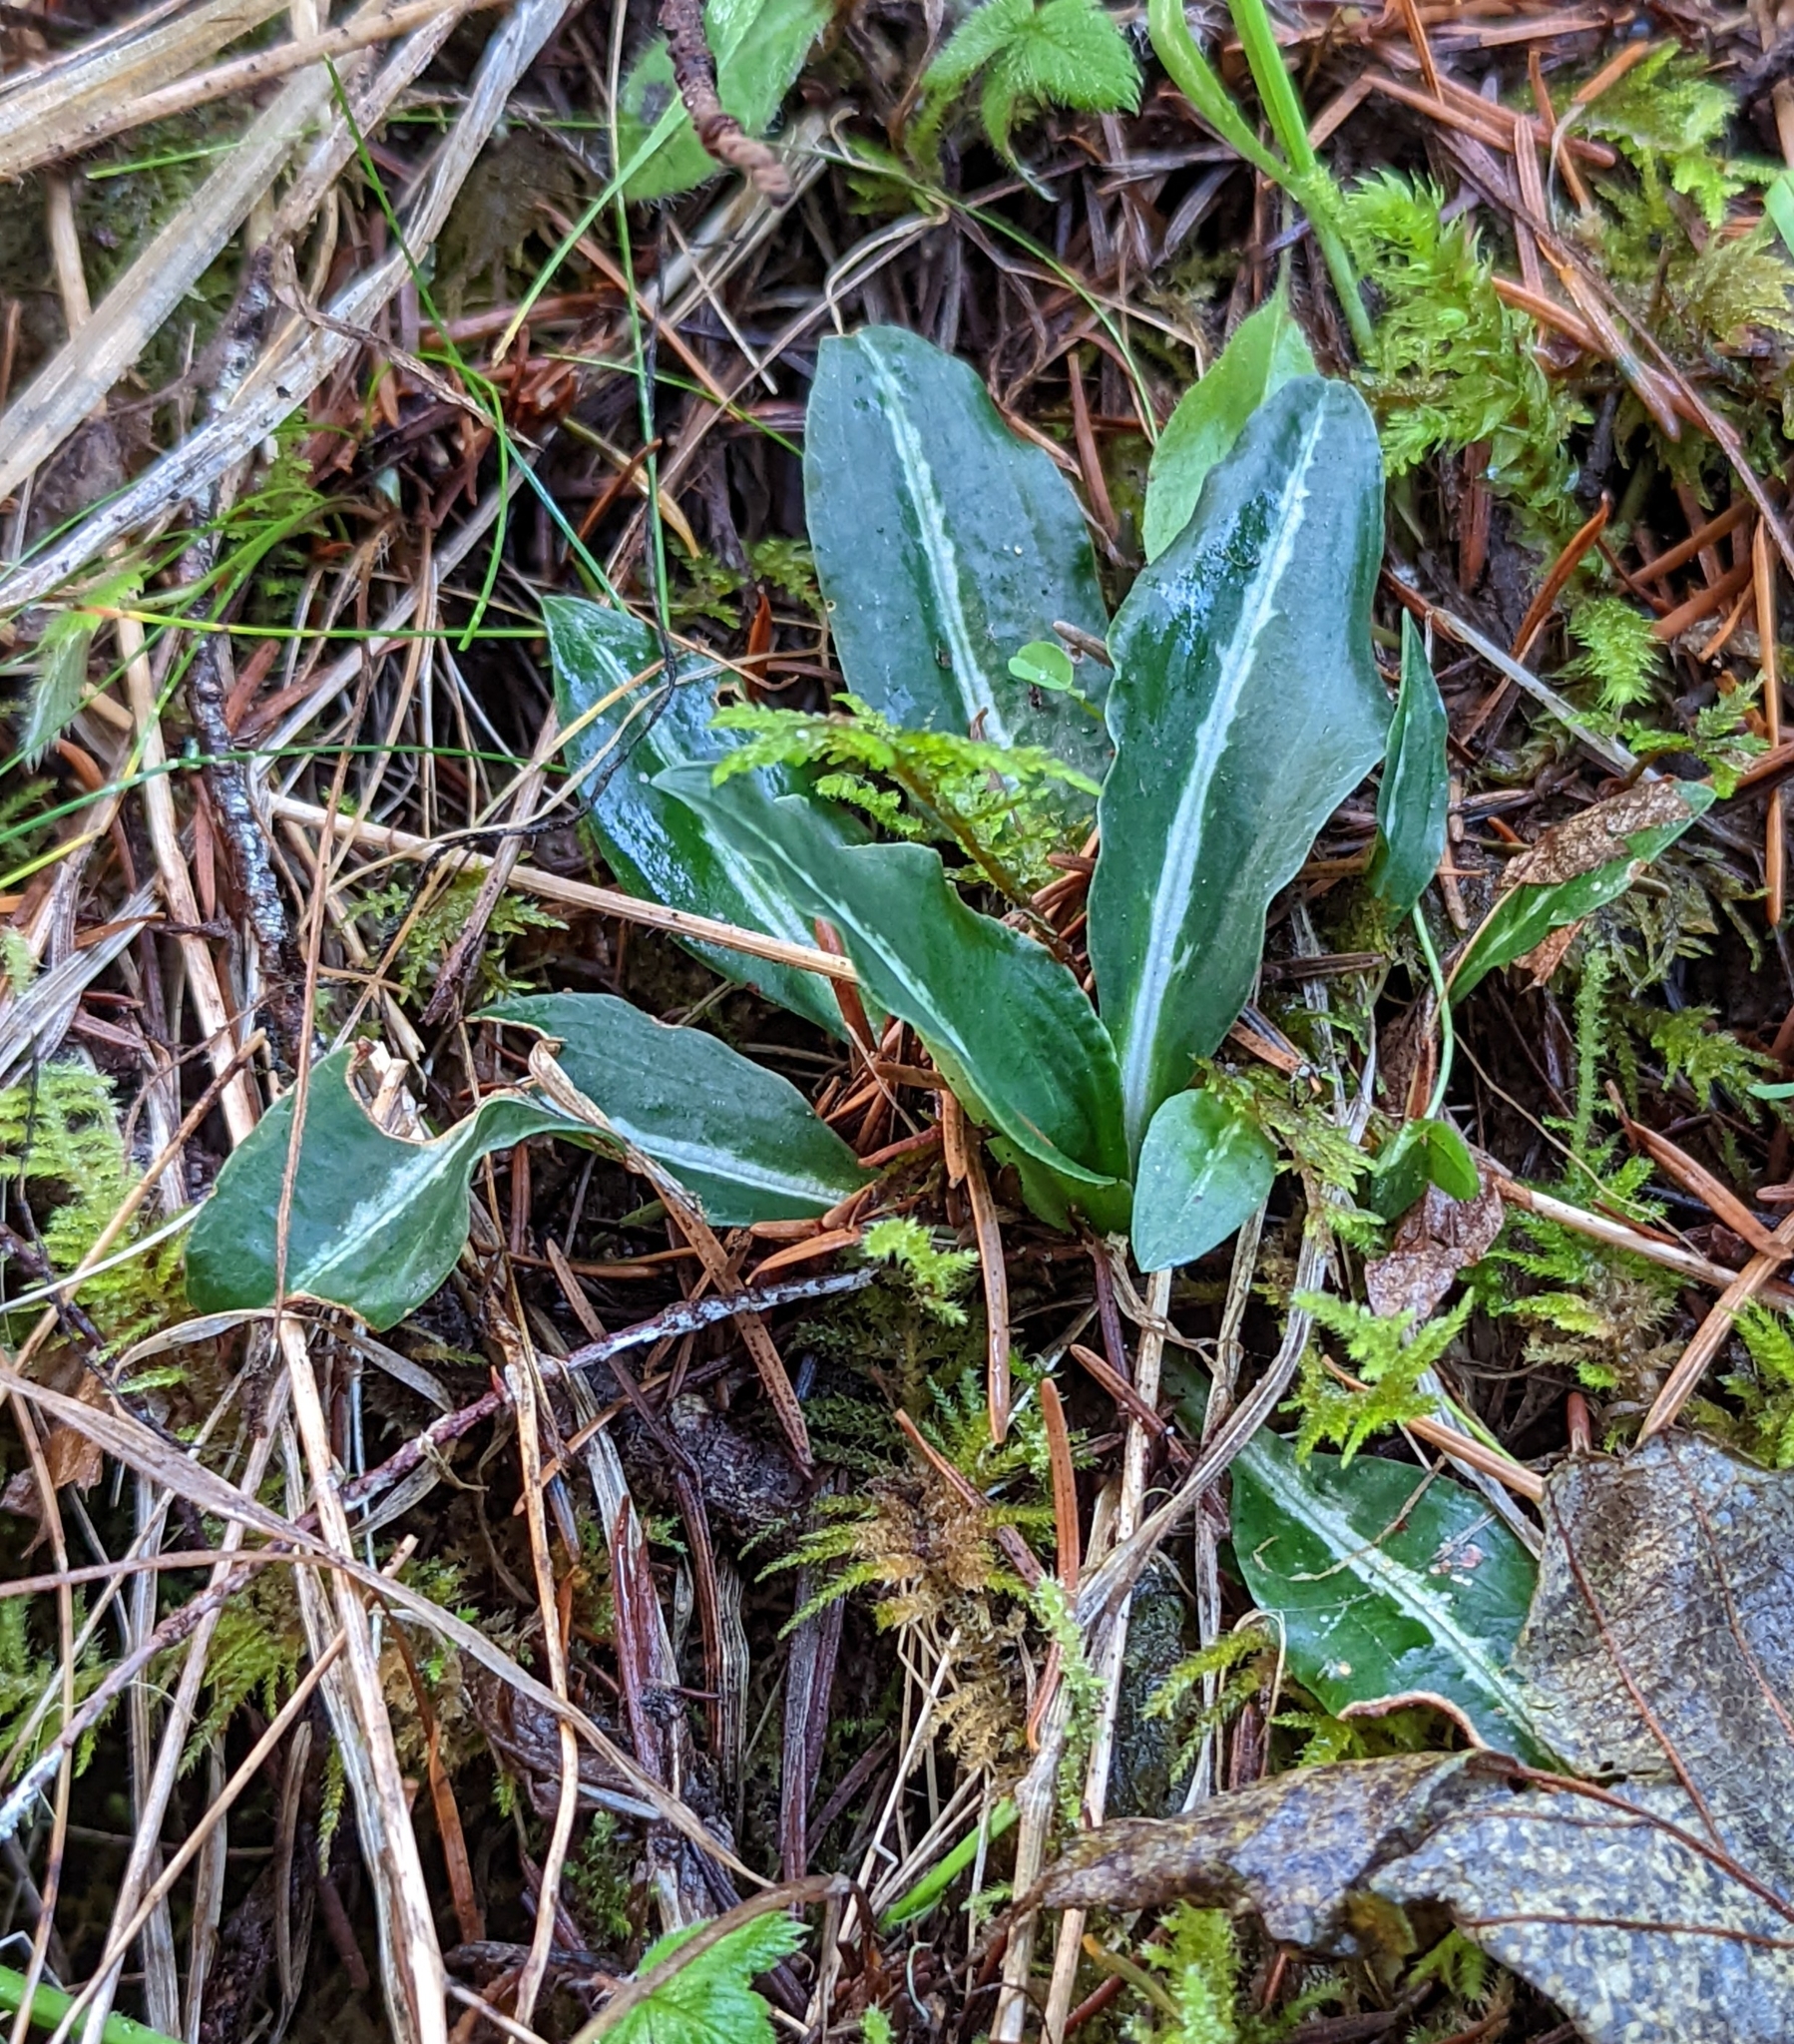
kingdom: Plantae
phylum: Tracheophyta
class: Liliopsida
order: Asparagales
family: Orchidaceae
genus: Goodyera
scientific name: Goodyera oblongifolia
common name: Giant rattlesnake-plantain
